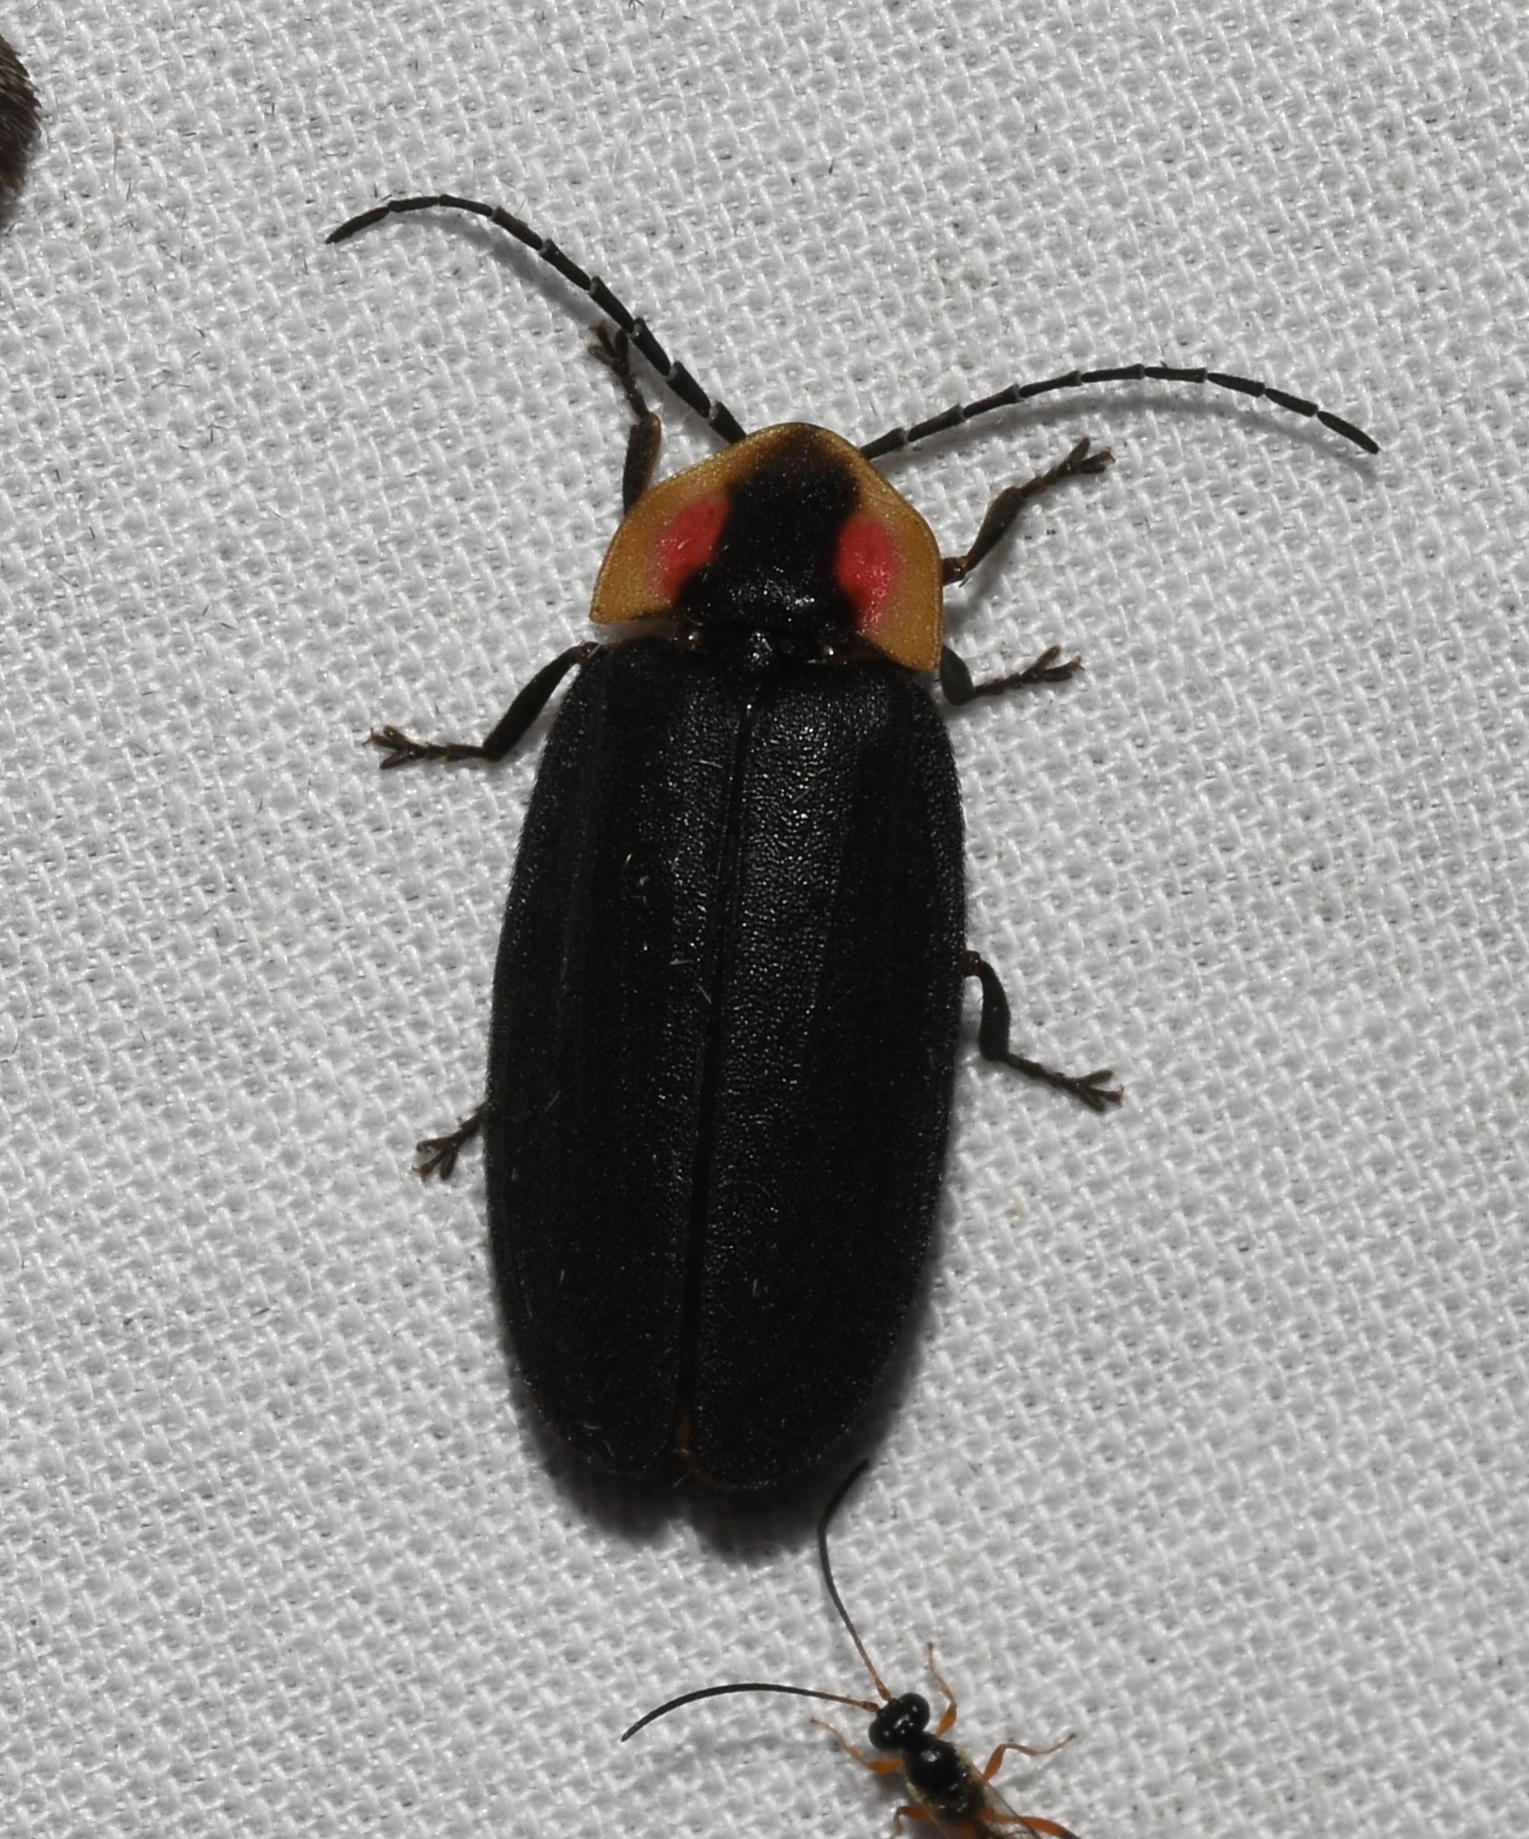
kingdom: Animalia
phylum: Arthropoda
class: Insecta
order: Coleoptera
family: Lampyridae
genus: Lucidota
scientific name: Lucidota atra
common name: Black firefly
